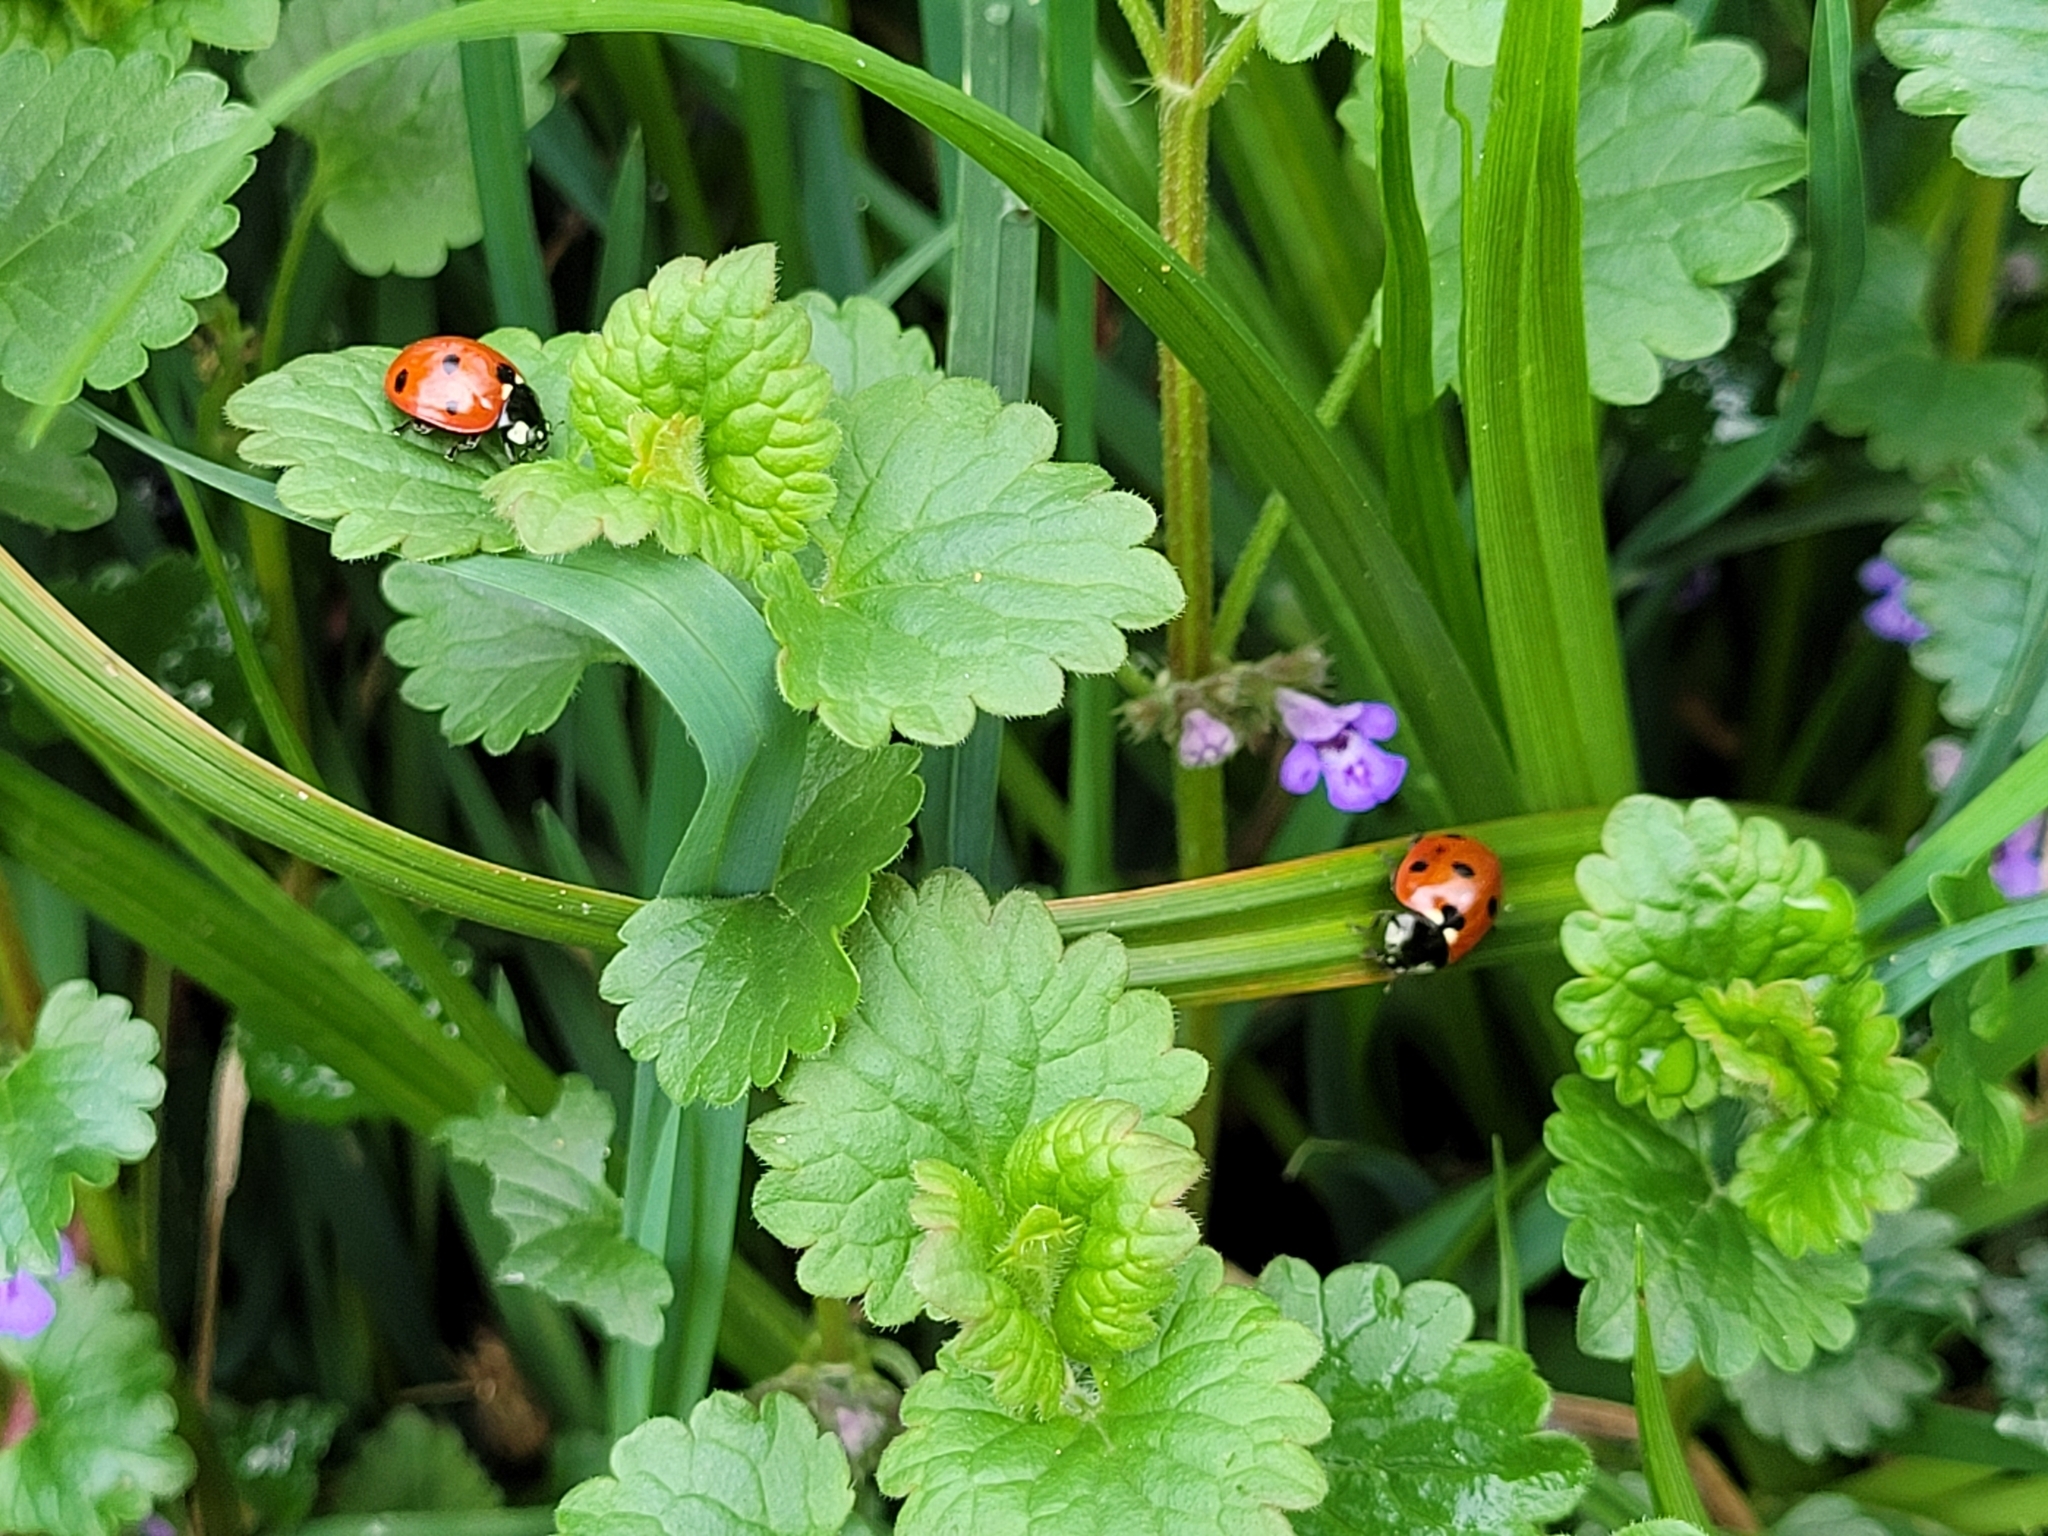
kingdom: Animalia
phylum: Arthropoda
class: Insecta
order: Coleoptera
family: Coccinellidae
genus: Coccinella
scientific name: Coccinella septempunctata
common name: Sevenspotted lady beetle
